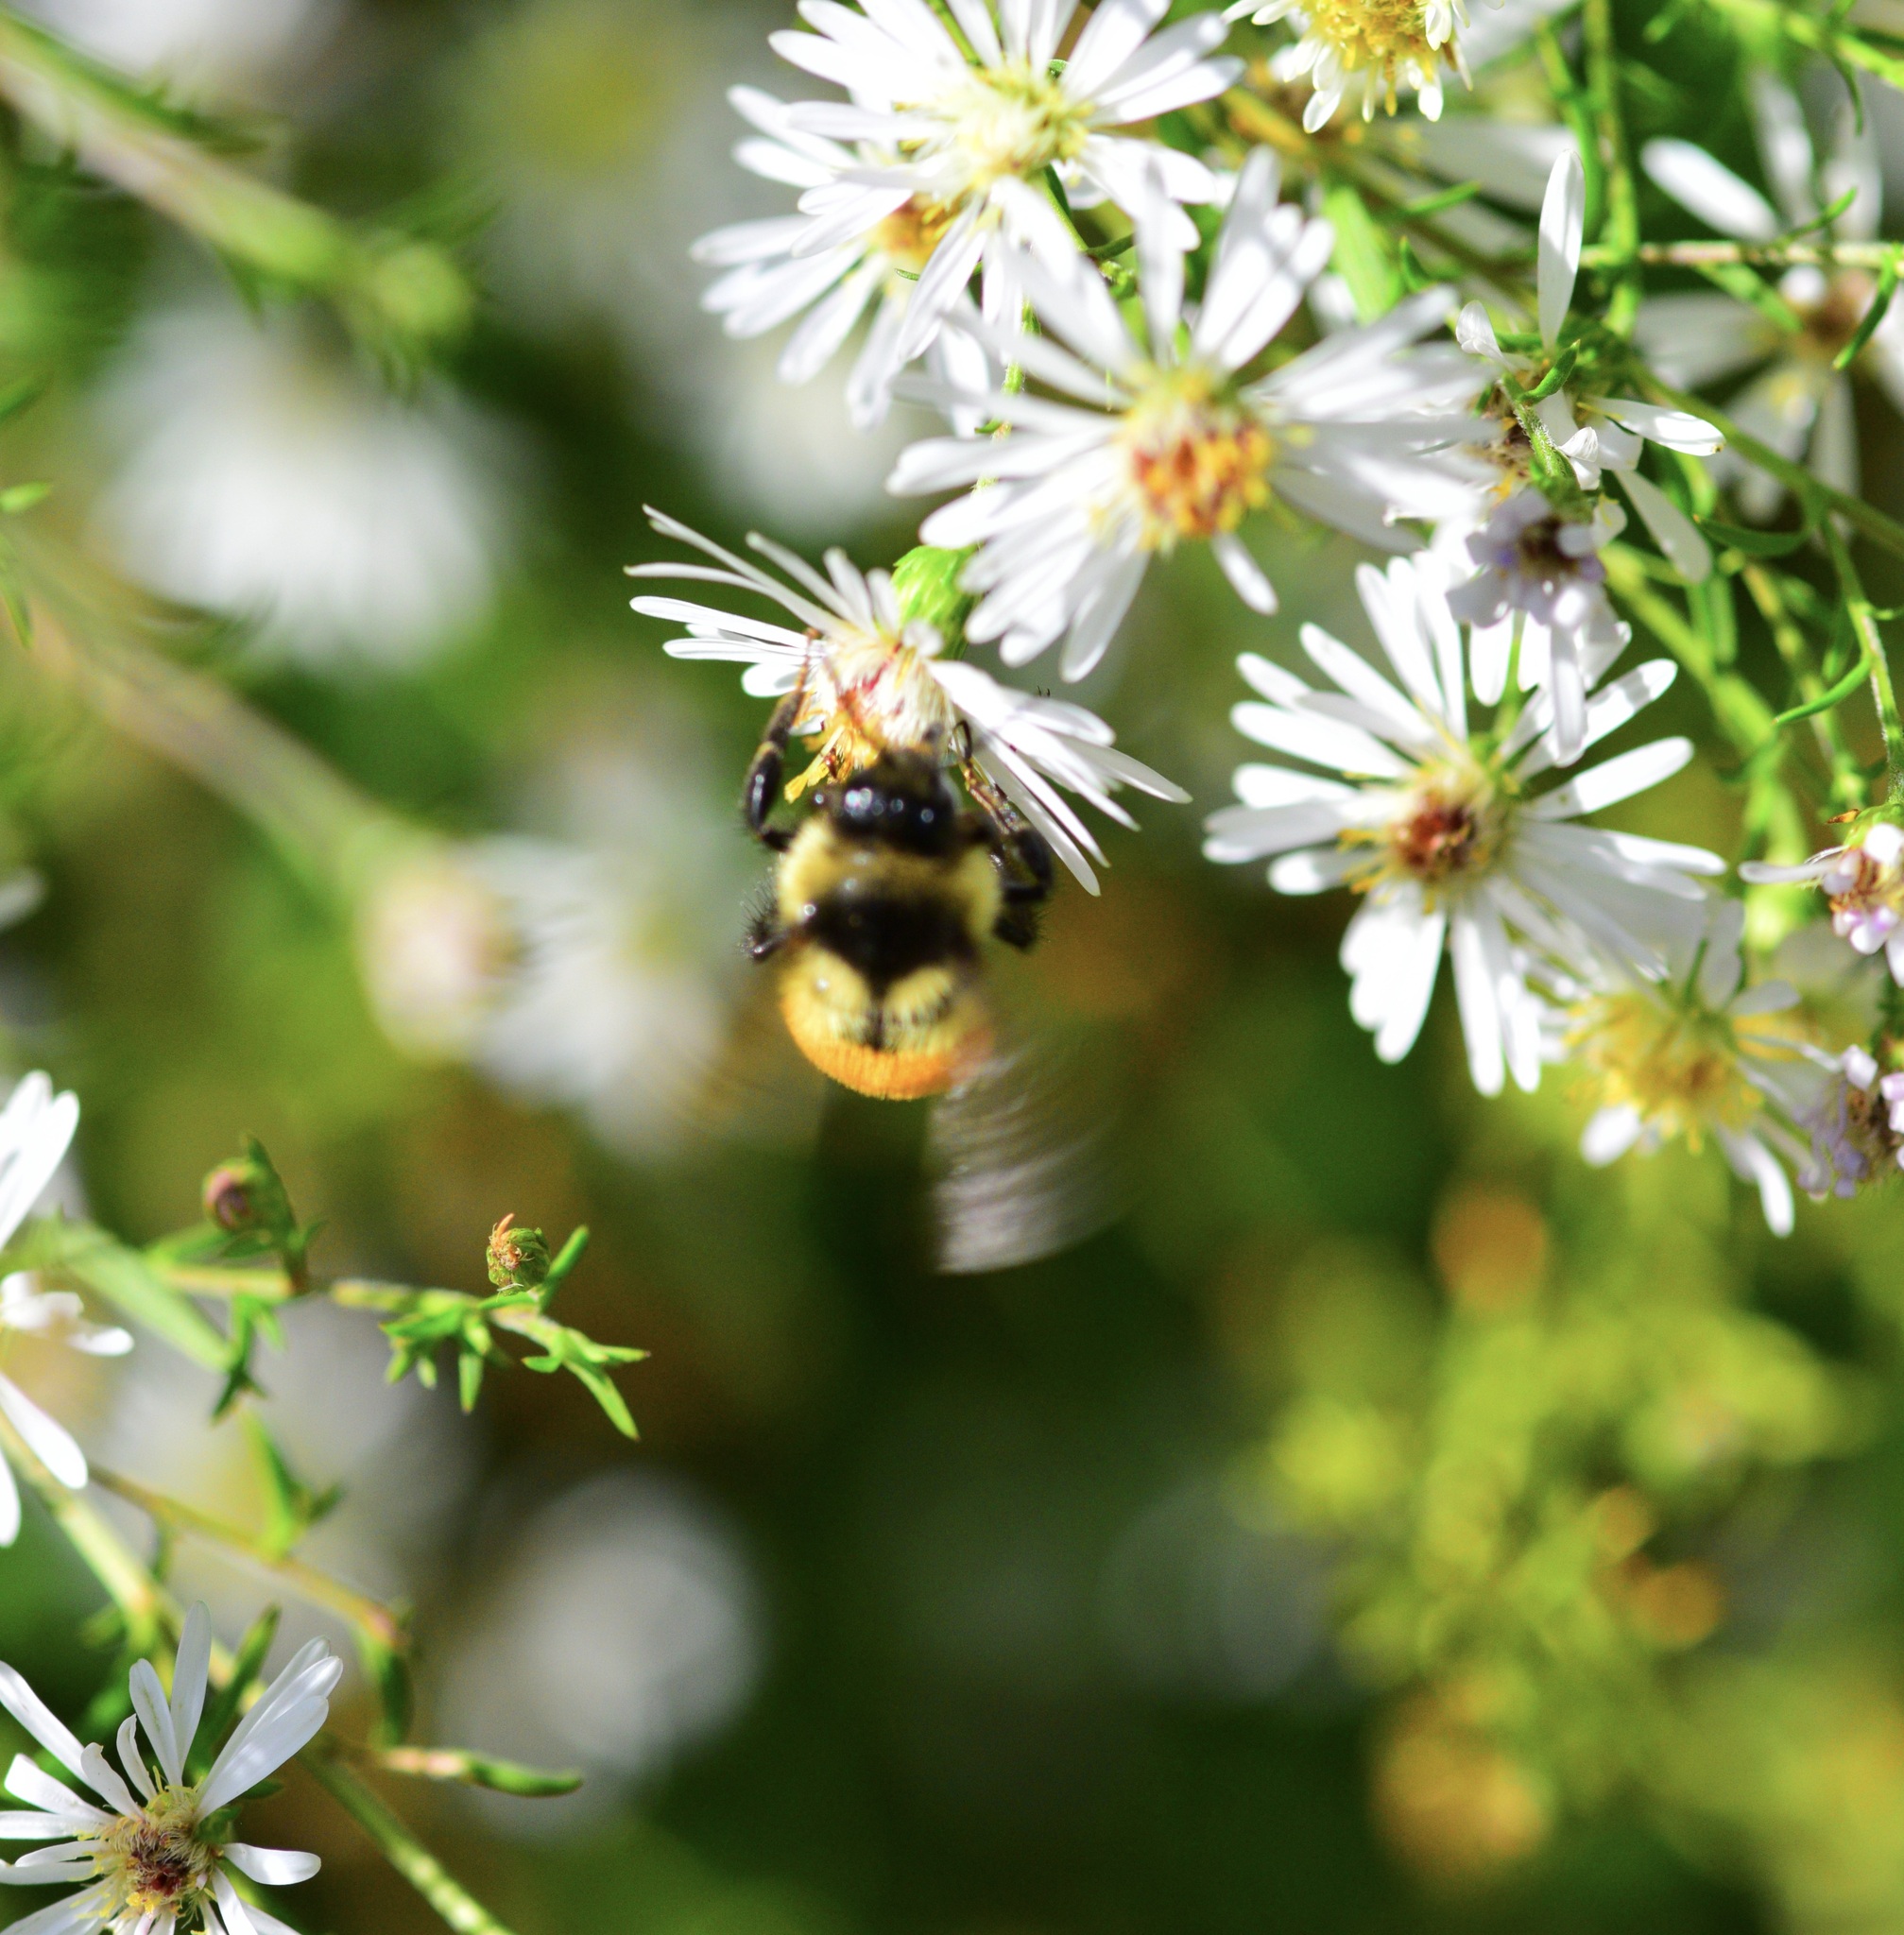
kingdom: Animalia
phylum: Arthropoda
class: Insecta
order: Hymenoptera
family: Apidae
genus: Bombus
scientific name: Bombus ternarius
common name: Tri-colored bumble bee
